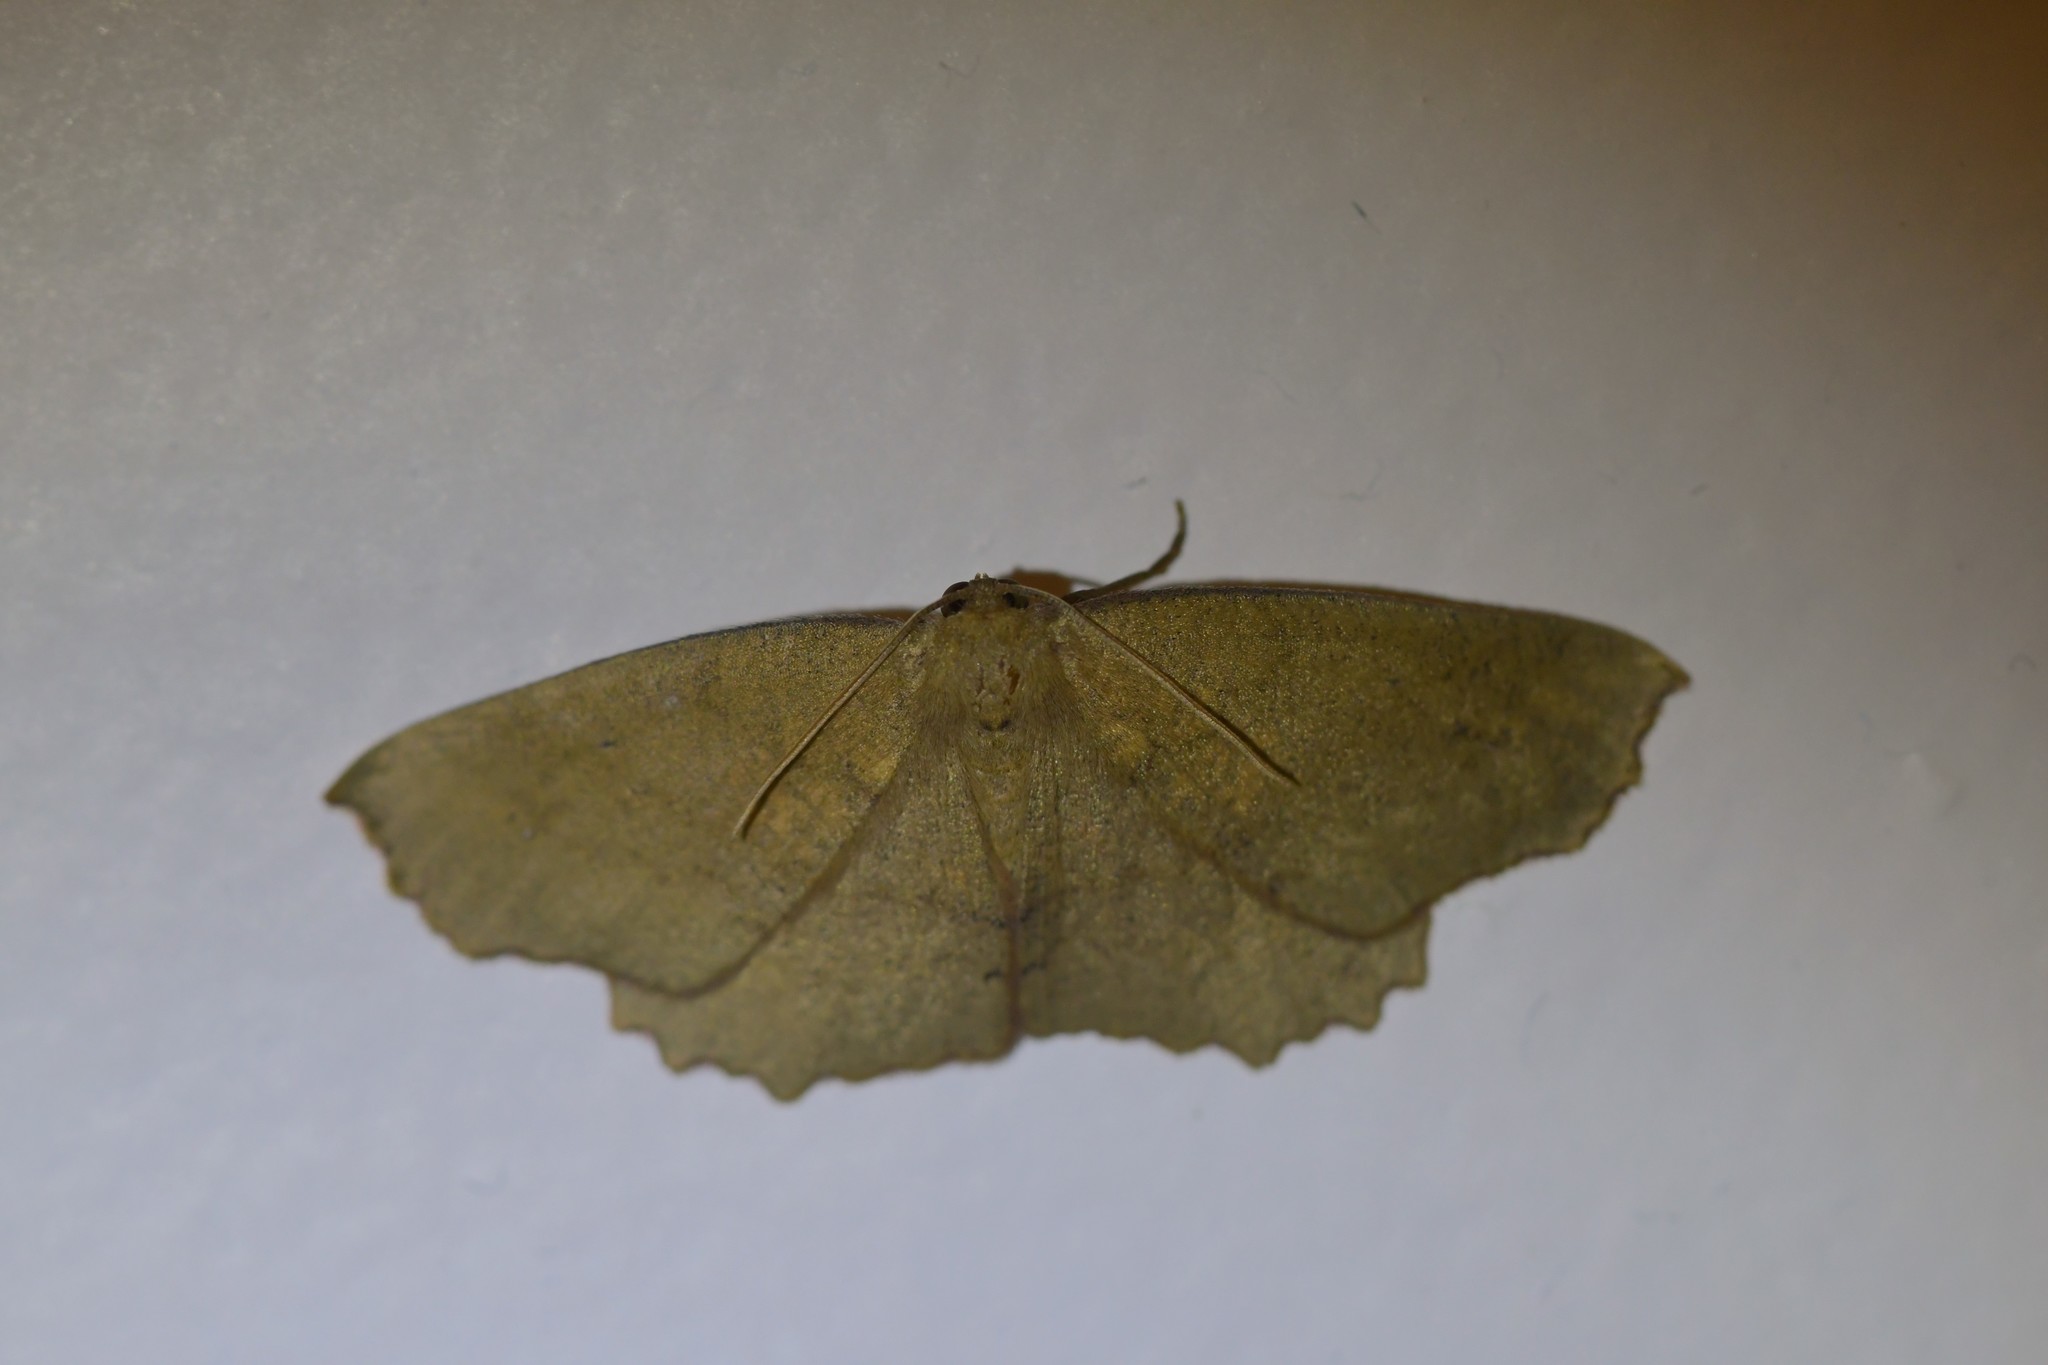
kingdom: Animalia
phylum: Arthropoda
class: Insecta
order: Lepidoptera
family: Geometridae
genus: Xyridacma
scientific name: Xyridacma ustaria
